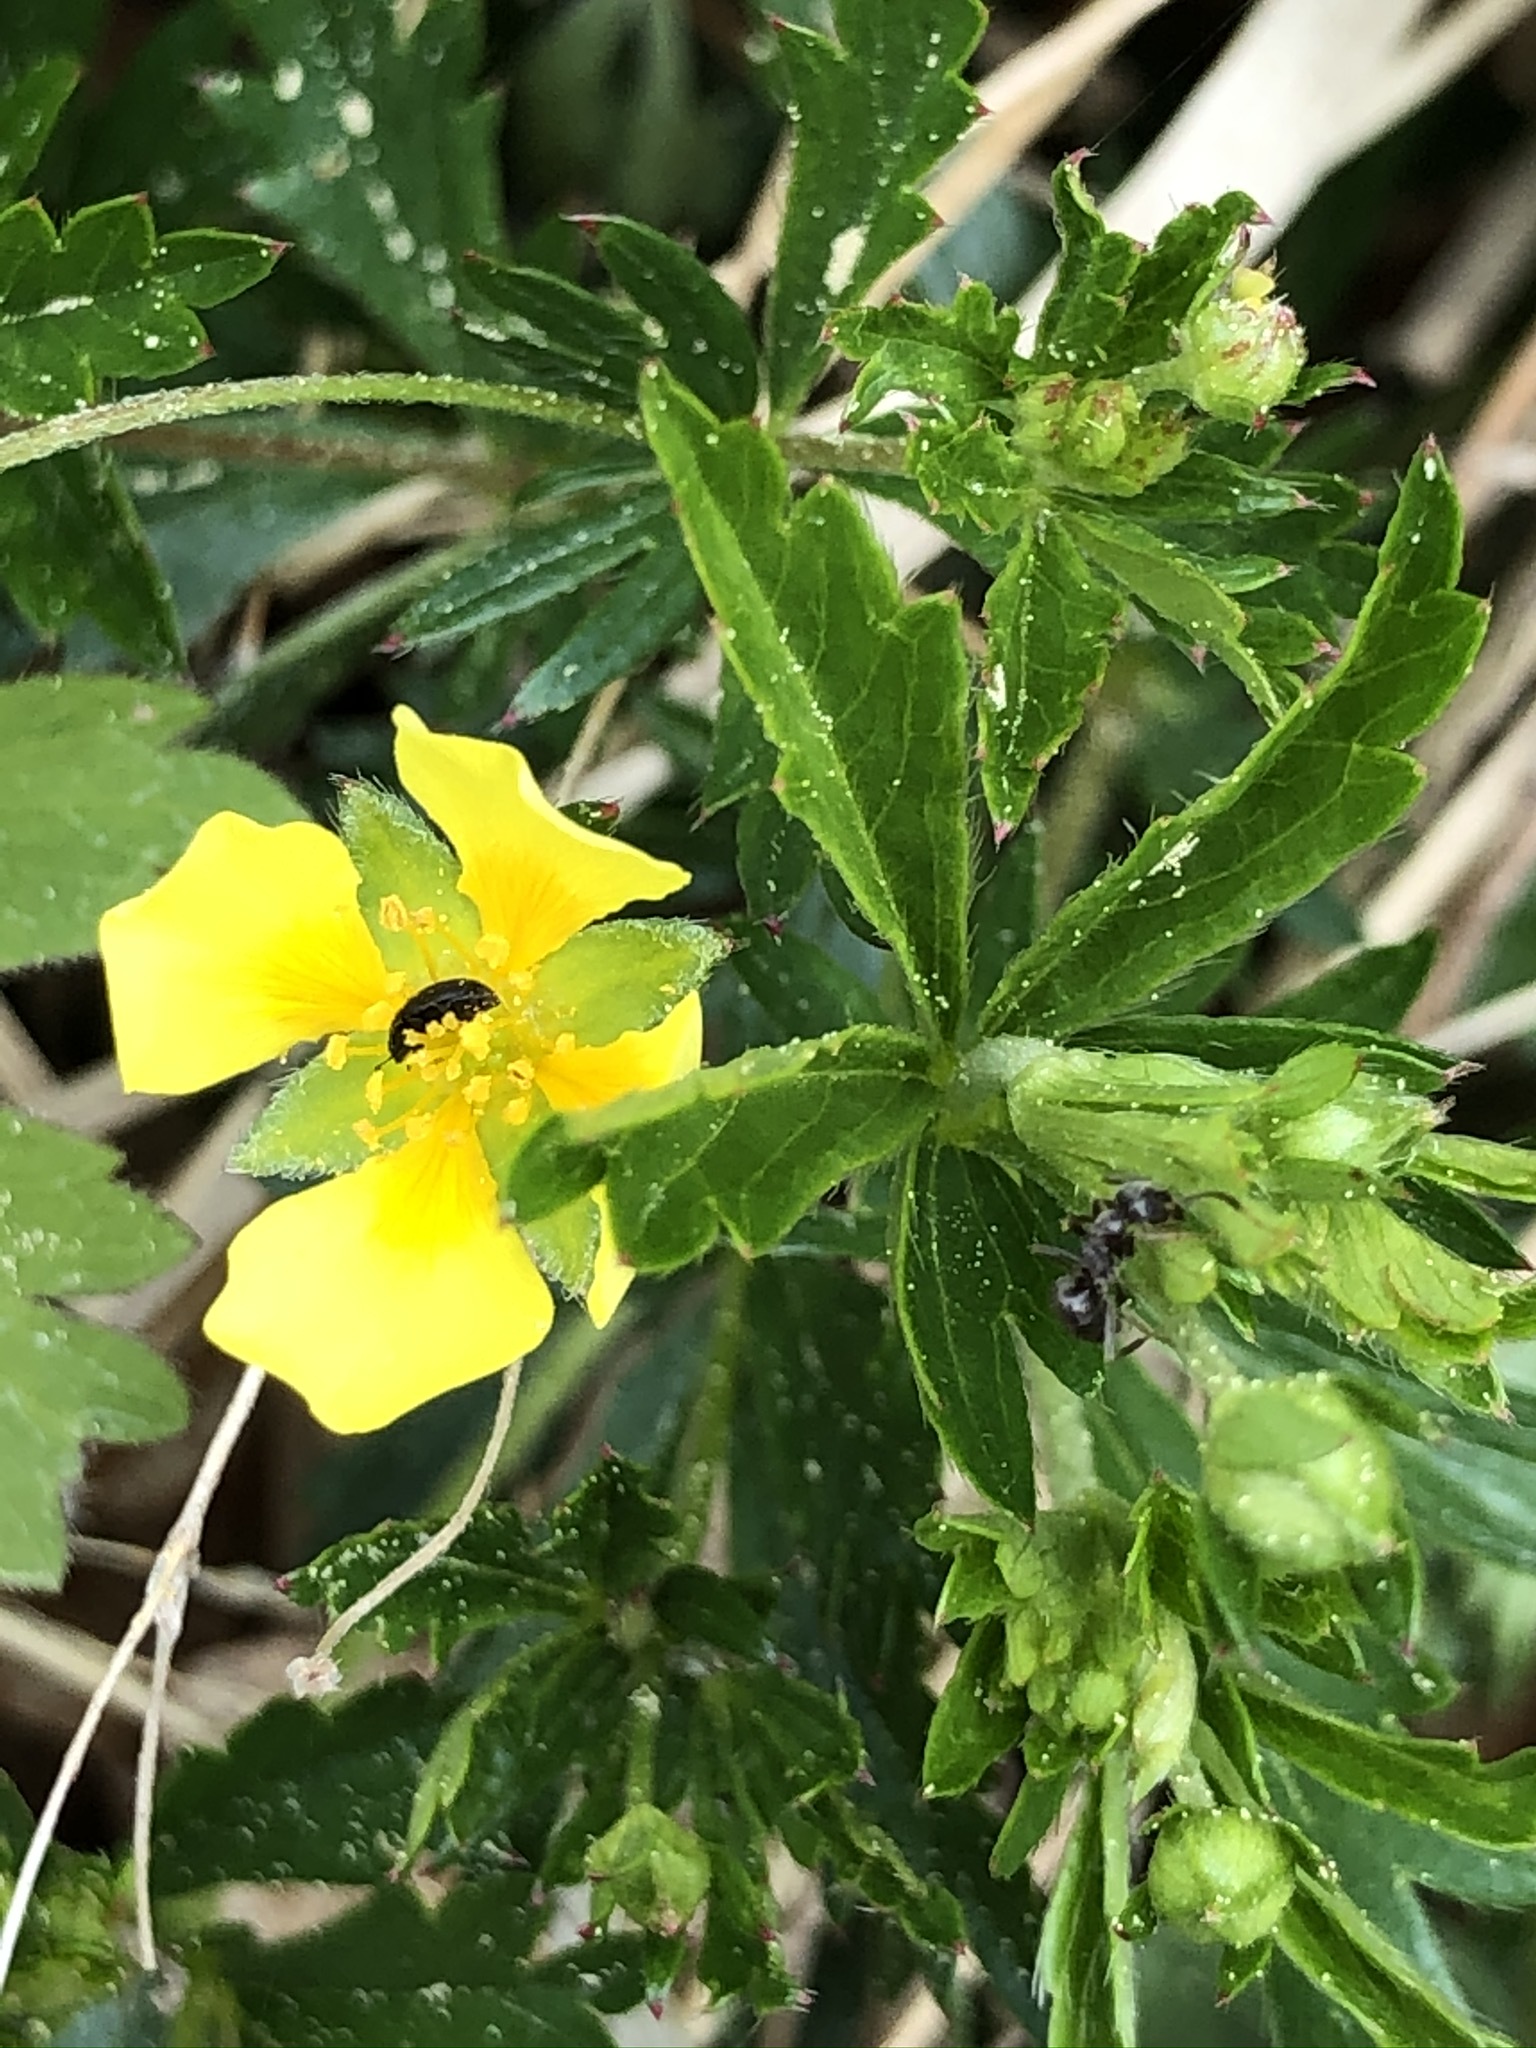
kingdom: Plantae
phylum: Tracheophyta
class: Magnoliopsida
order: Rosales
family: Rosaceae
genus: Potentilla
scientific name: Potentilla erecta
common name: Tormentil
